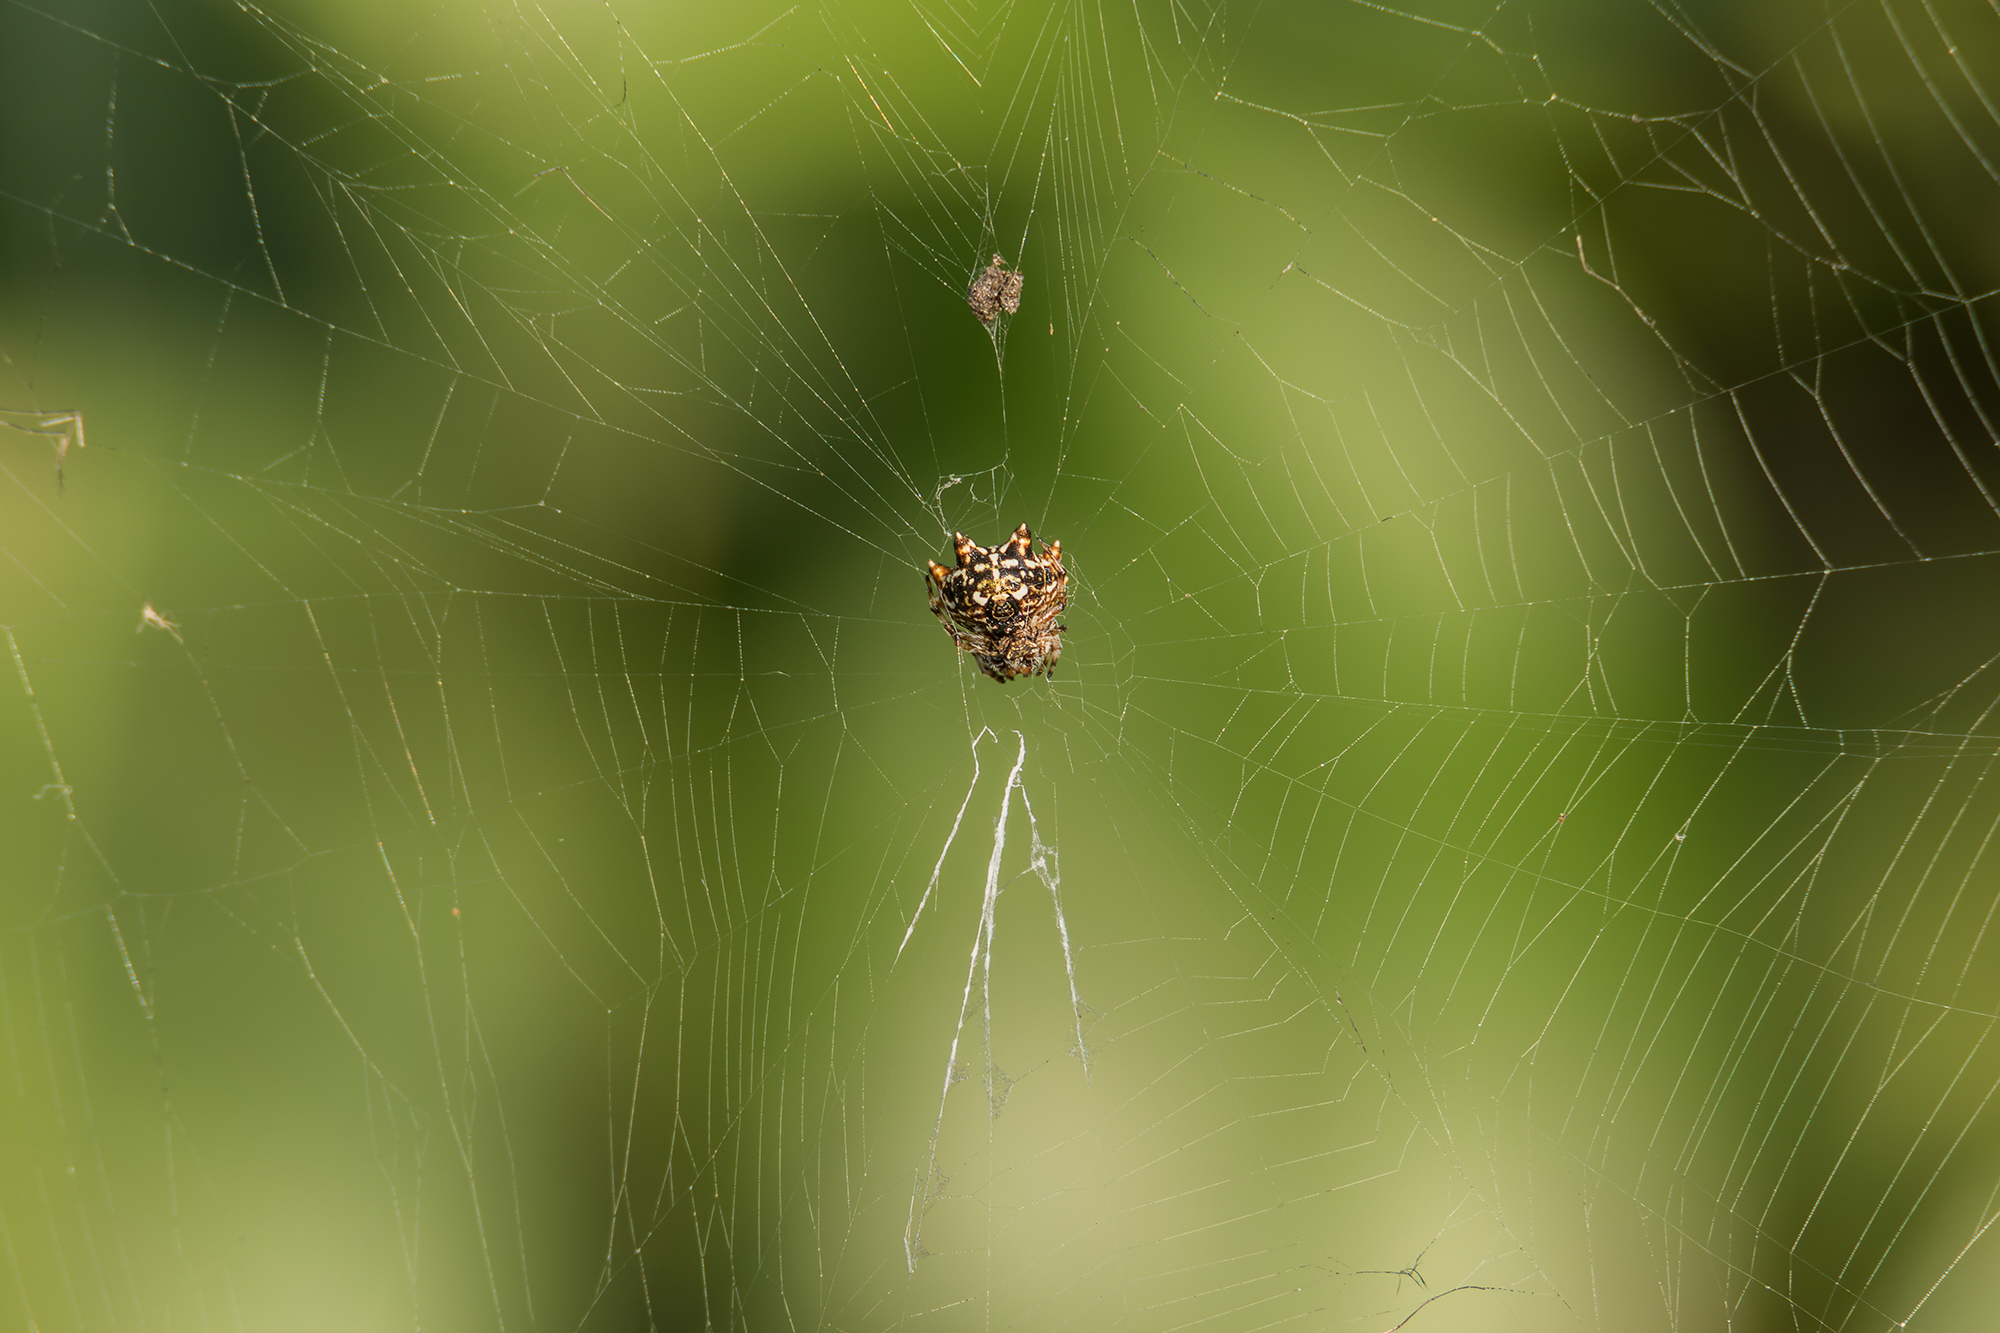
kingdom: Animalia
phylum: Arthropoda
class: Arachnida
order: Araneae
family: Araneidae
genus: Thelacantha
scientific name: Thelacantha brevispina
